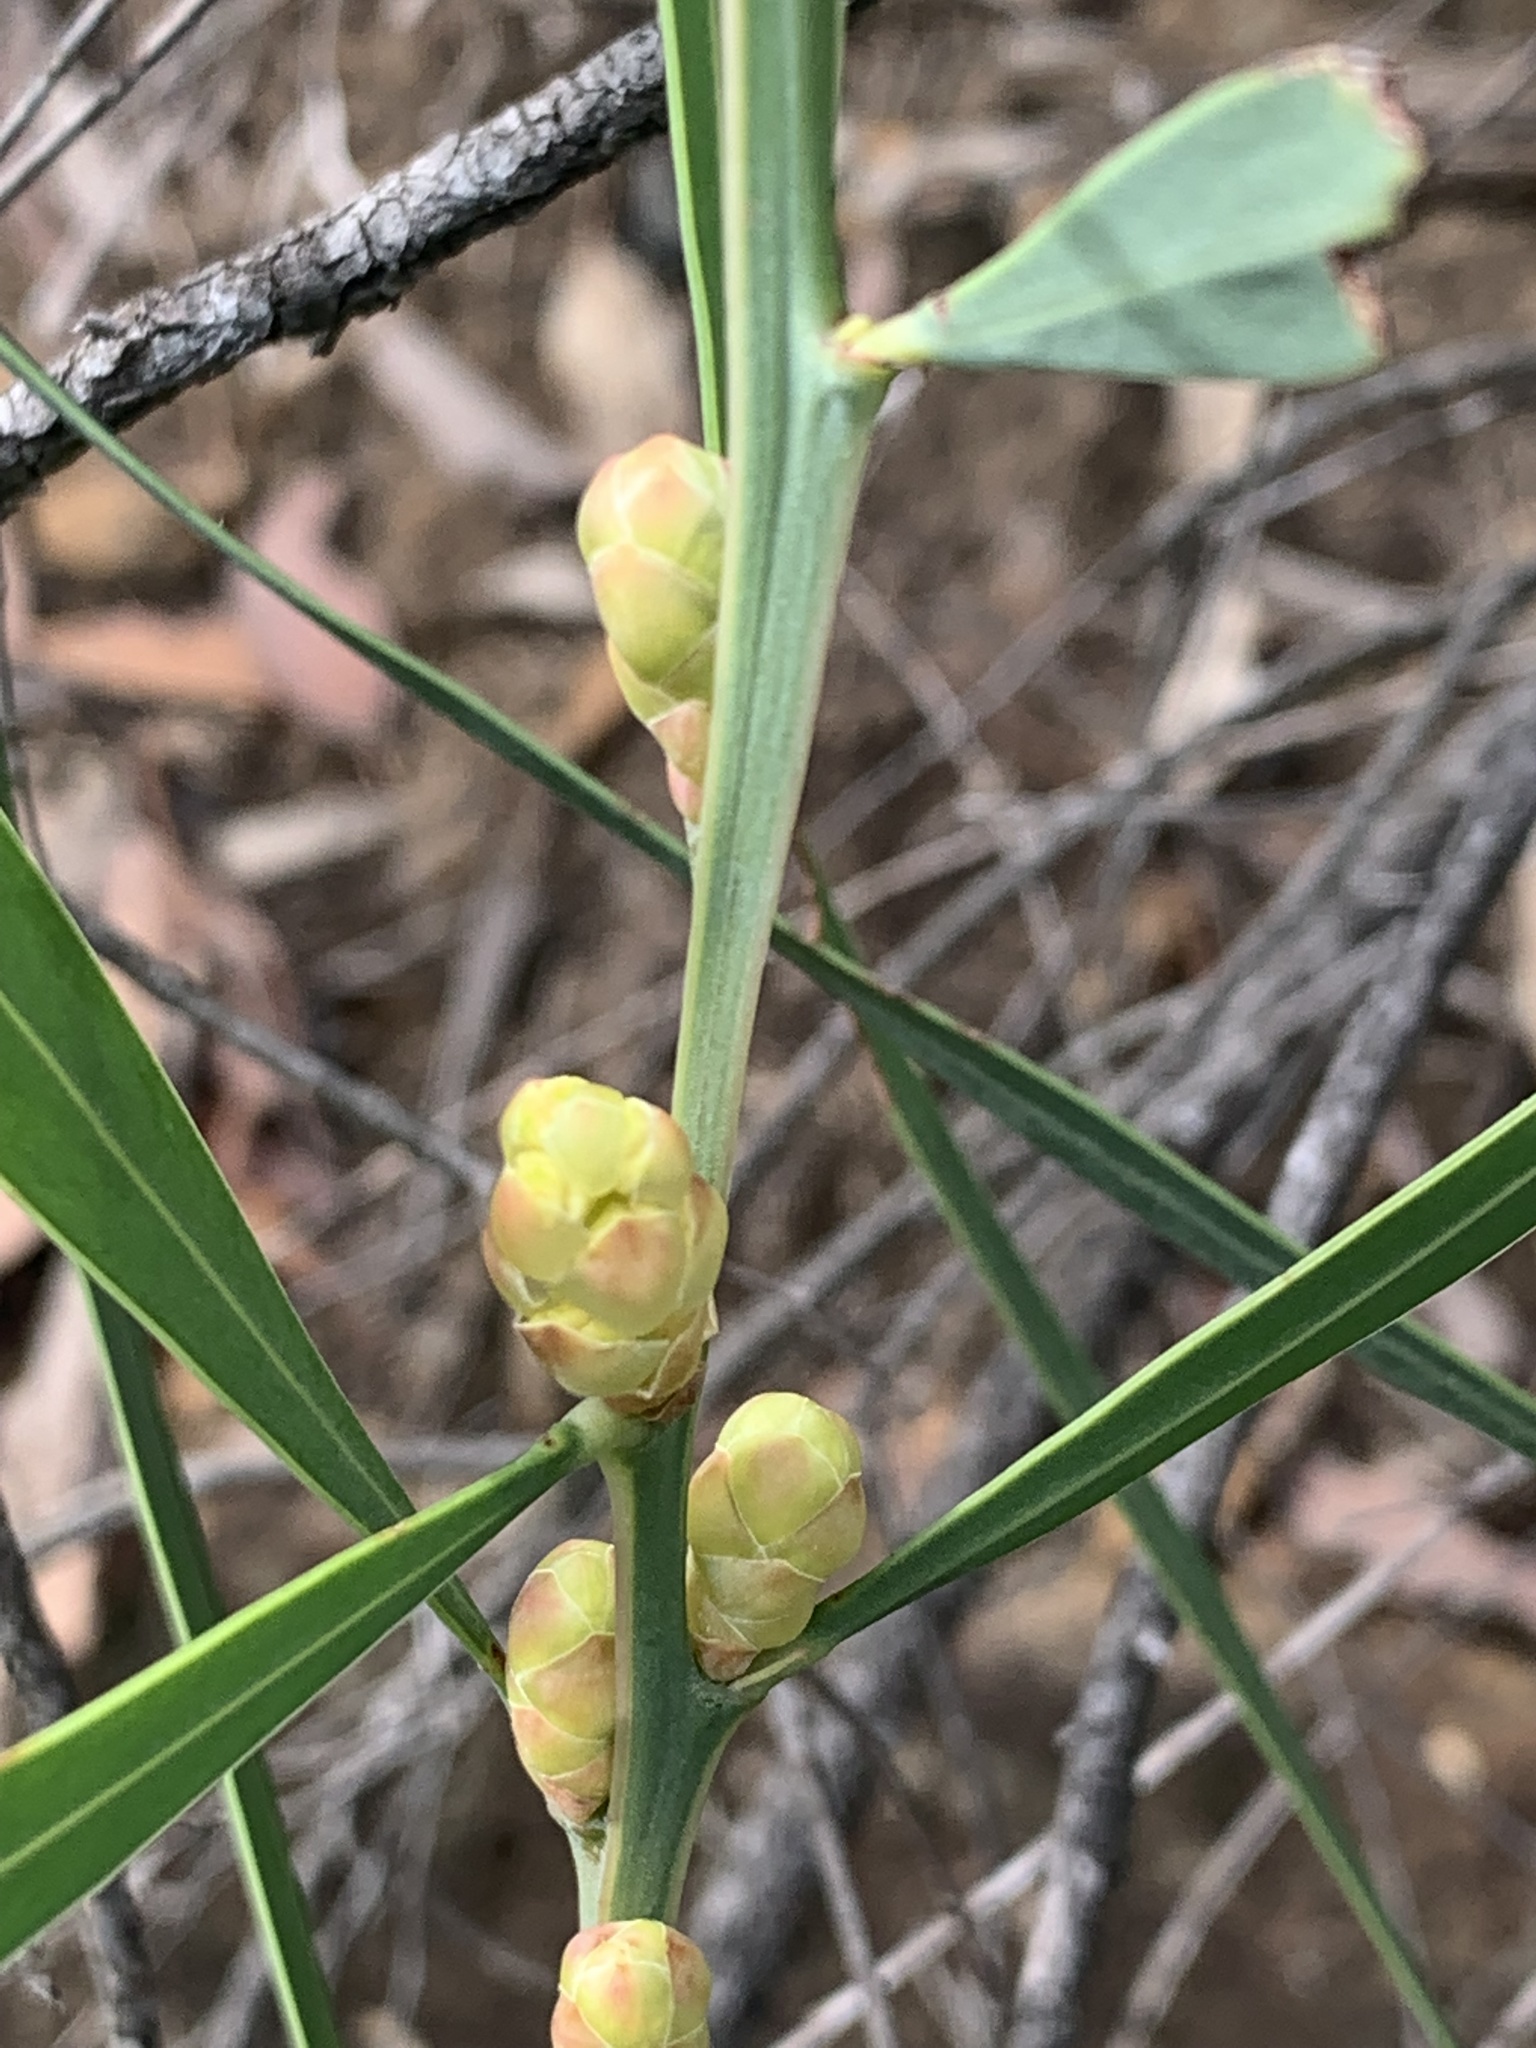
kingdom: Plantae
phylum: Tracheophyta
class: Magnoliopsida
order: Fabales
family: Fabaceae
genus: Acacia
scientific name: Acacia suaveolens
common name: Sweet acacia
